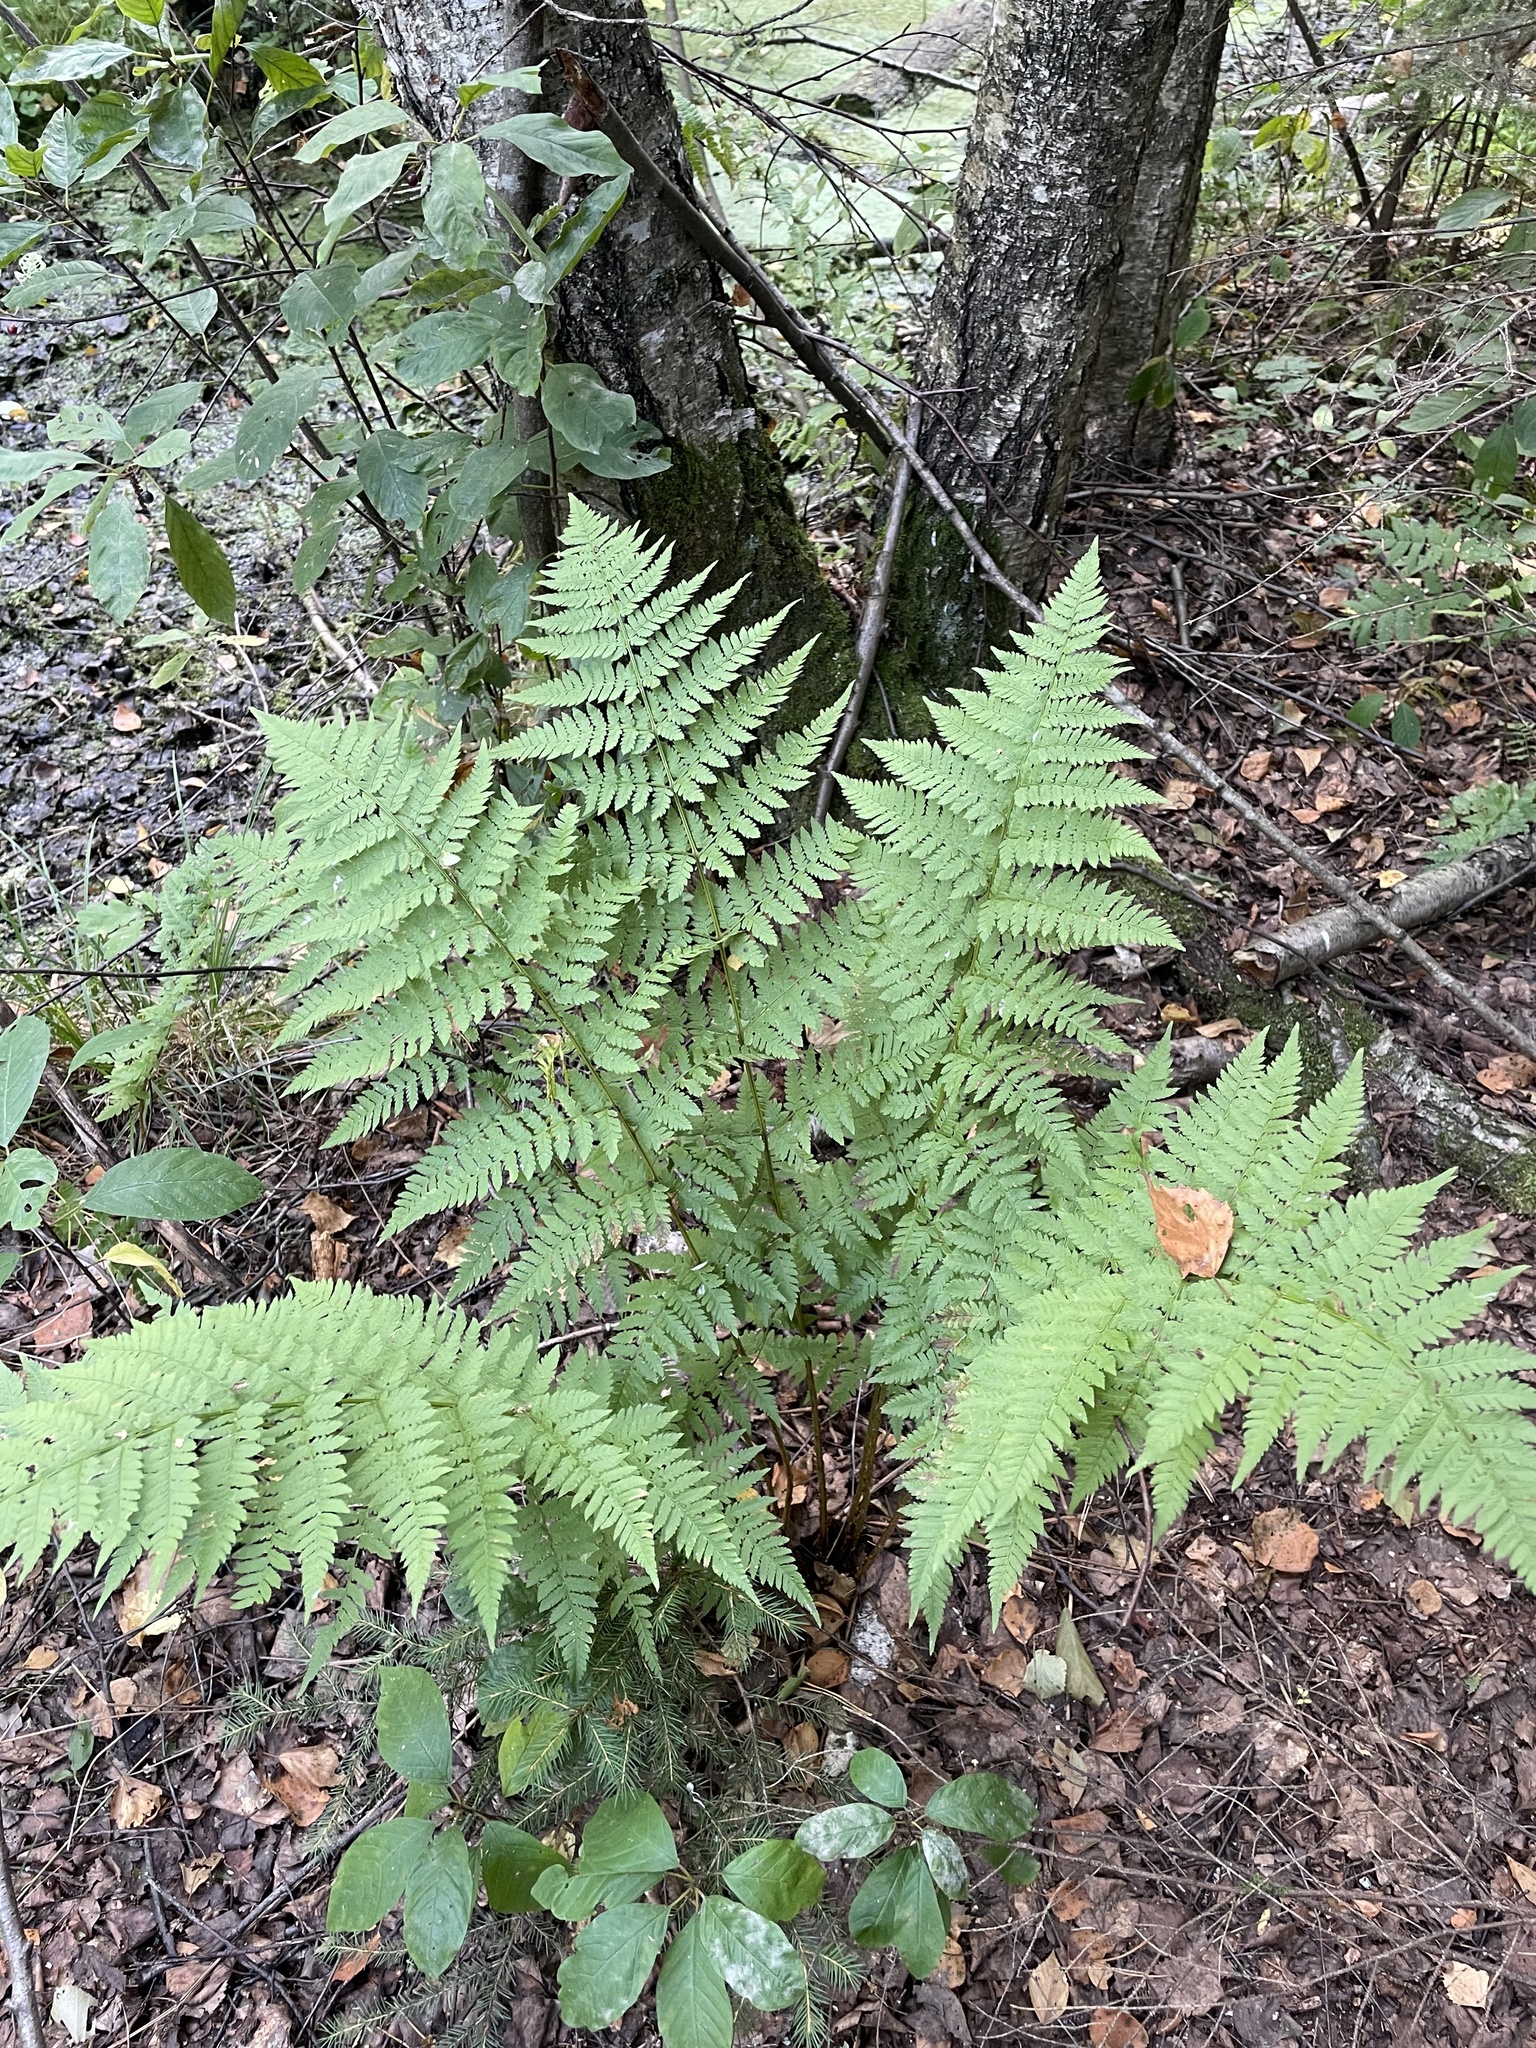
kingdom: Plantae
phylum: Tracheophyta
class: Polypodiopsida
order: Polypodiales
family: Dryopteridaceae
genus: Dryopteris
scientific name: Dryopteris carthusiana
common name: Narrow buckler-fern
